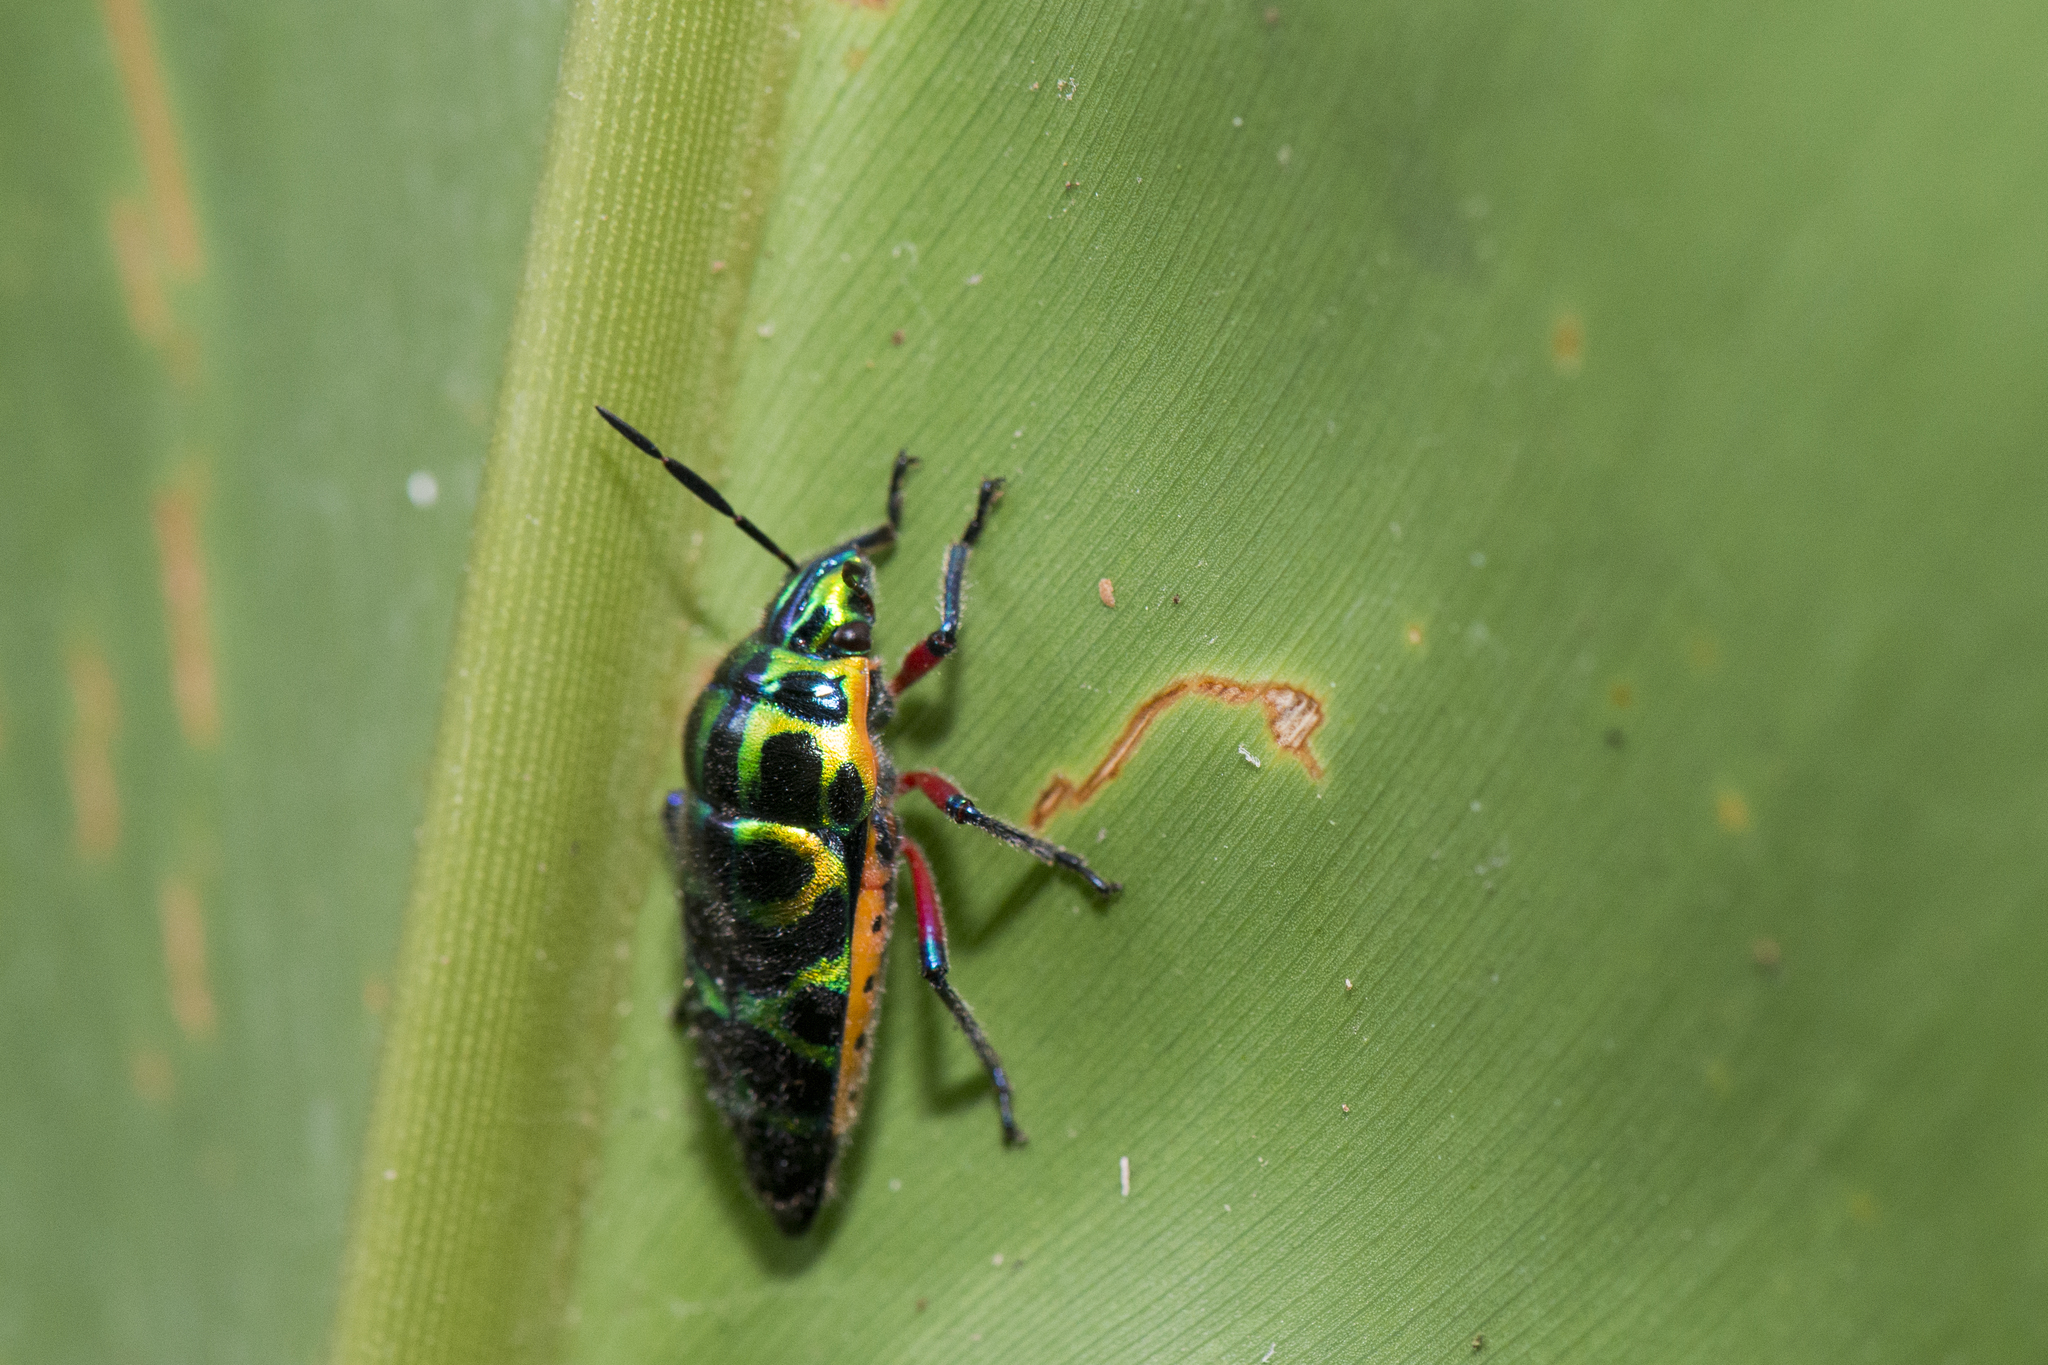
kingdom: Animalia
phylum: Arthropoda
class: Insecta
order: Hemiptera
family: Scutelleridae
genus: Scutellera
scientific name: Scutellera nepalensis
